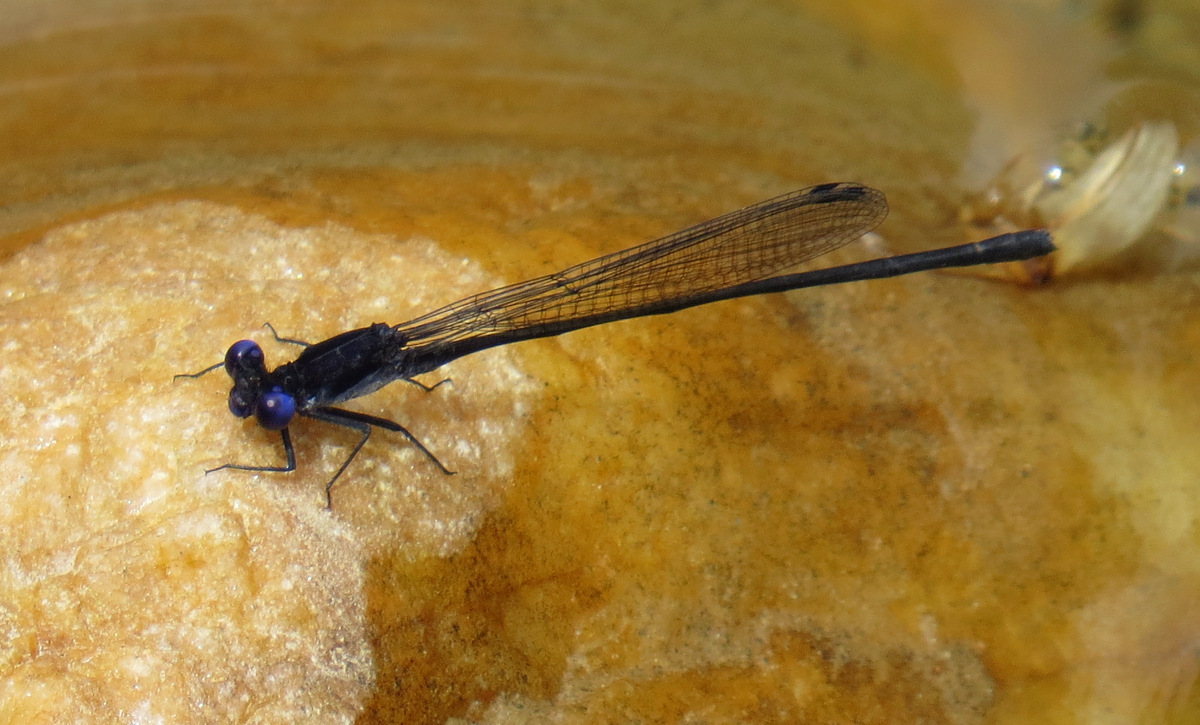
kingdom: Animalia
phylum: Arthropoda
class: Insecta
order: Odonata
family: Coenagrionidae
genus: Argia
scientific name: Argia translata
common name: Dusky dancer
